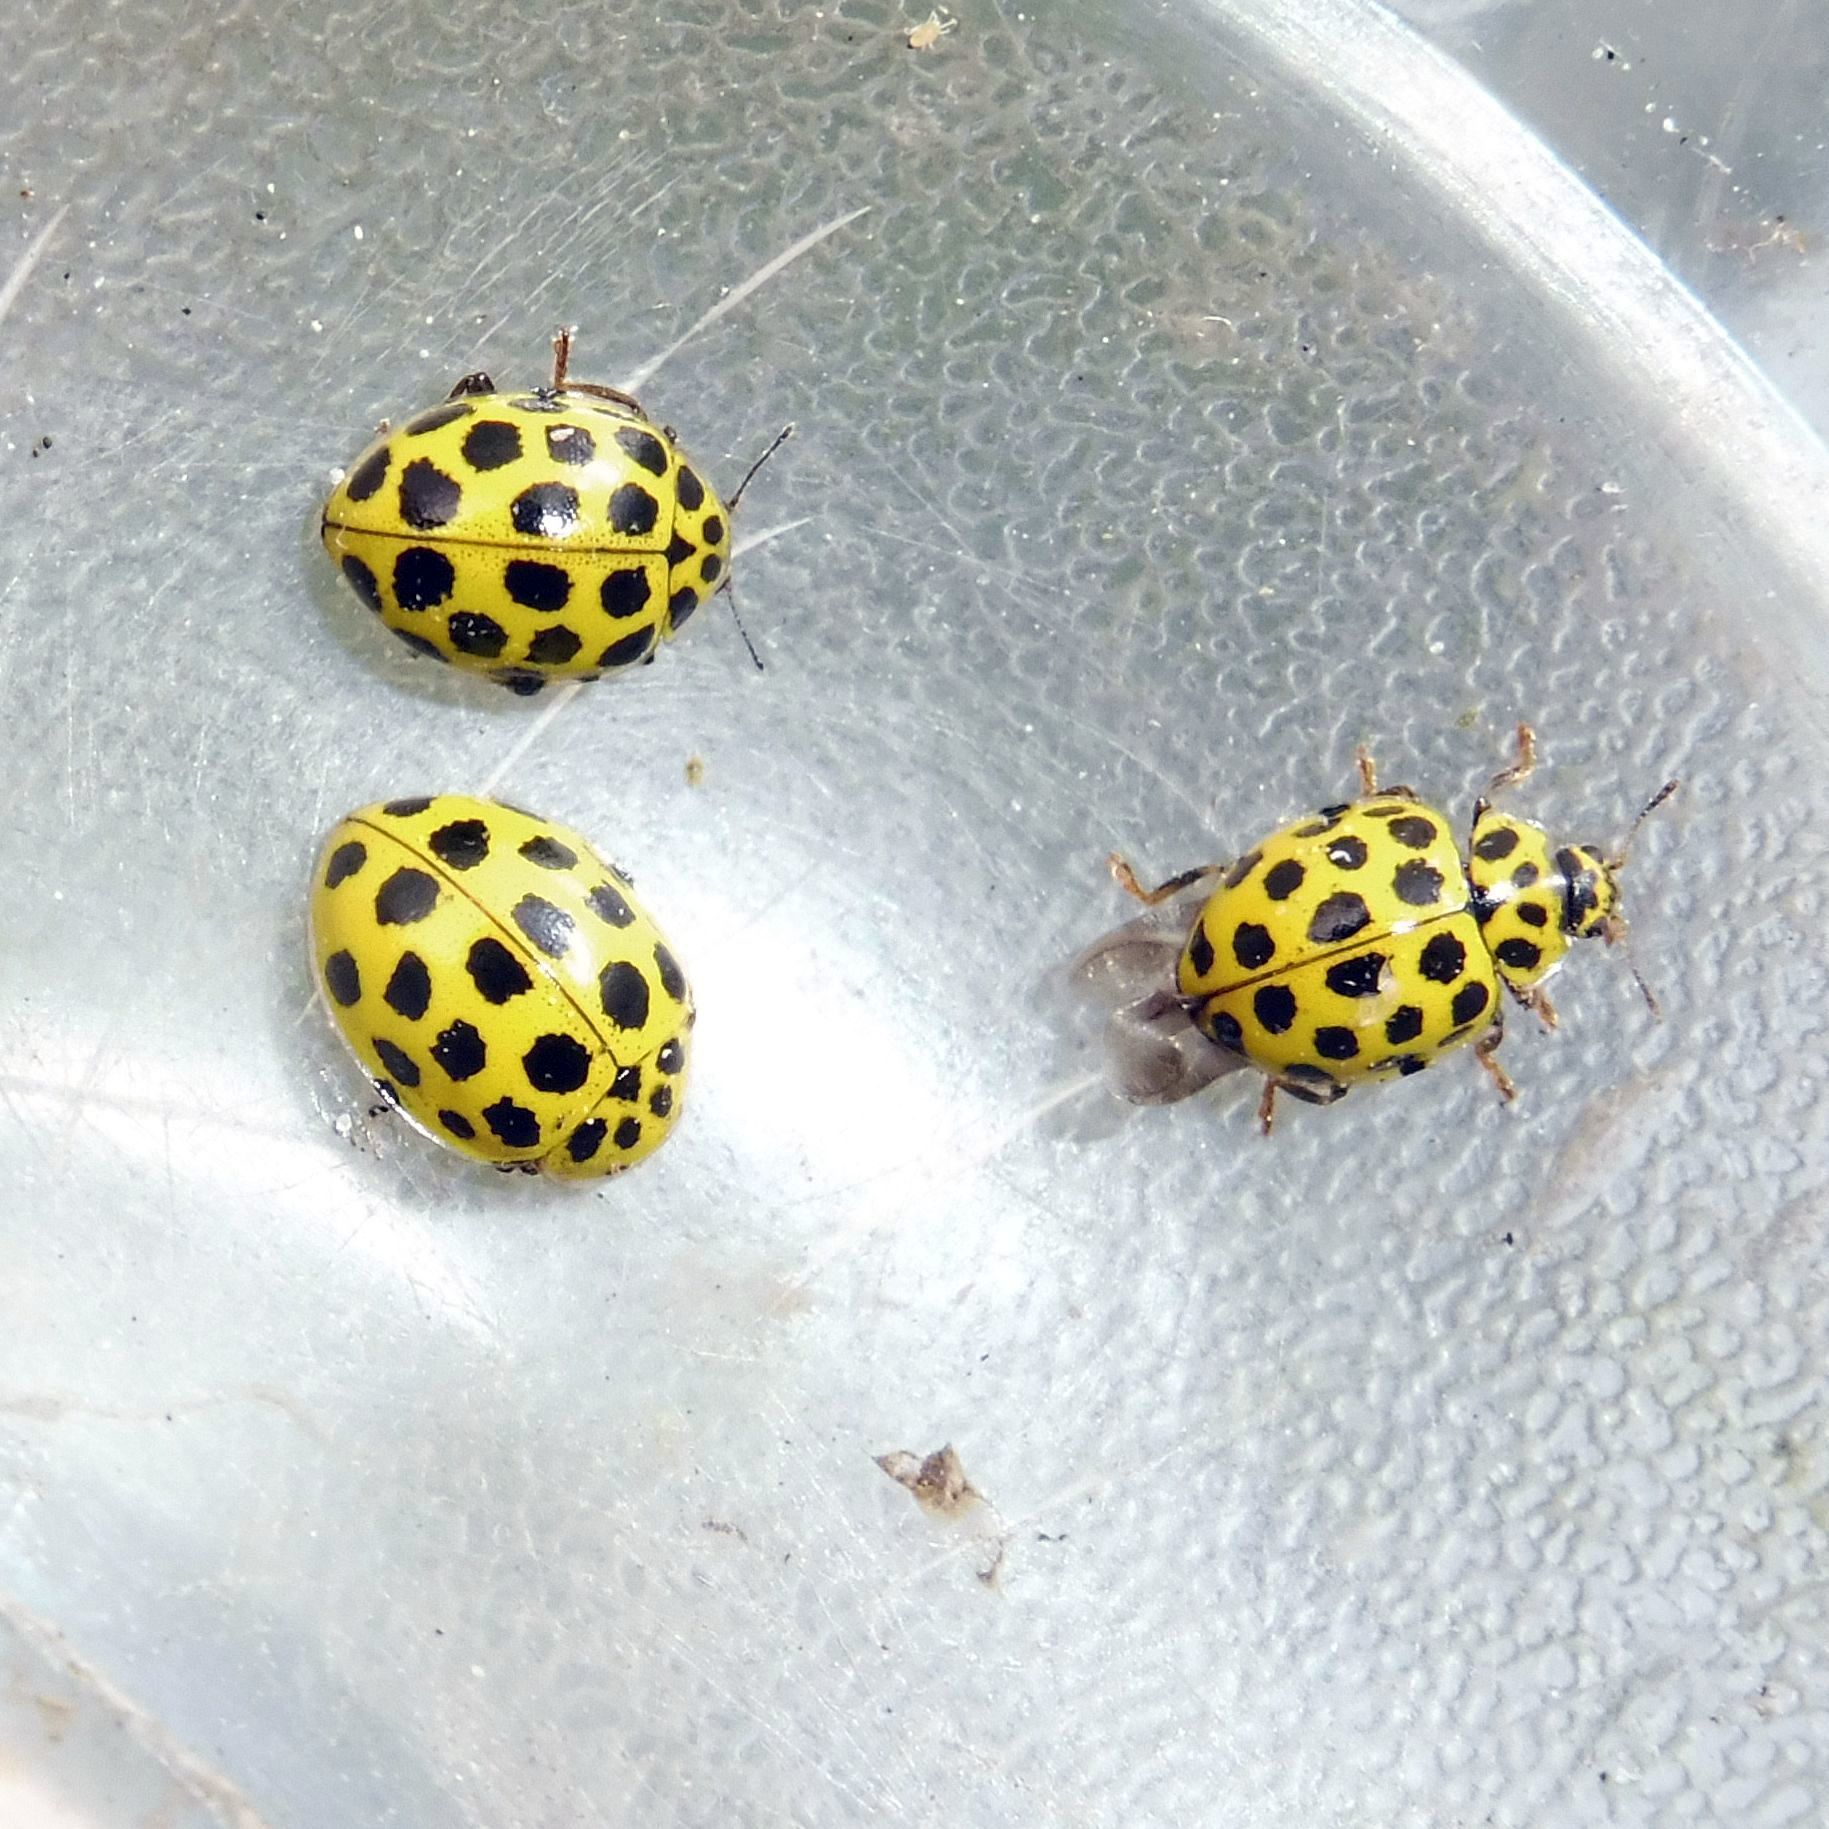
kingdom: Animalia
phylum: Arthropoda
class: Insecta
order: Coleoptera
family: Coccinellidae
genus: Psyllobora
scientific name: Psyllobora vigintiduopunctata
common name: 22-spot ladybird
